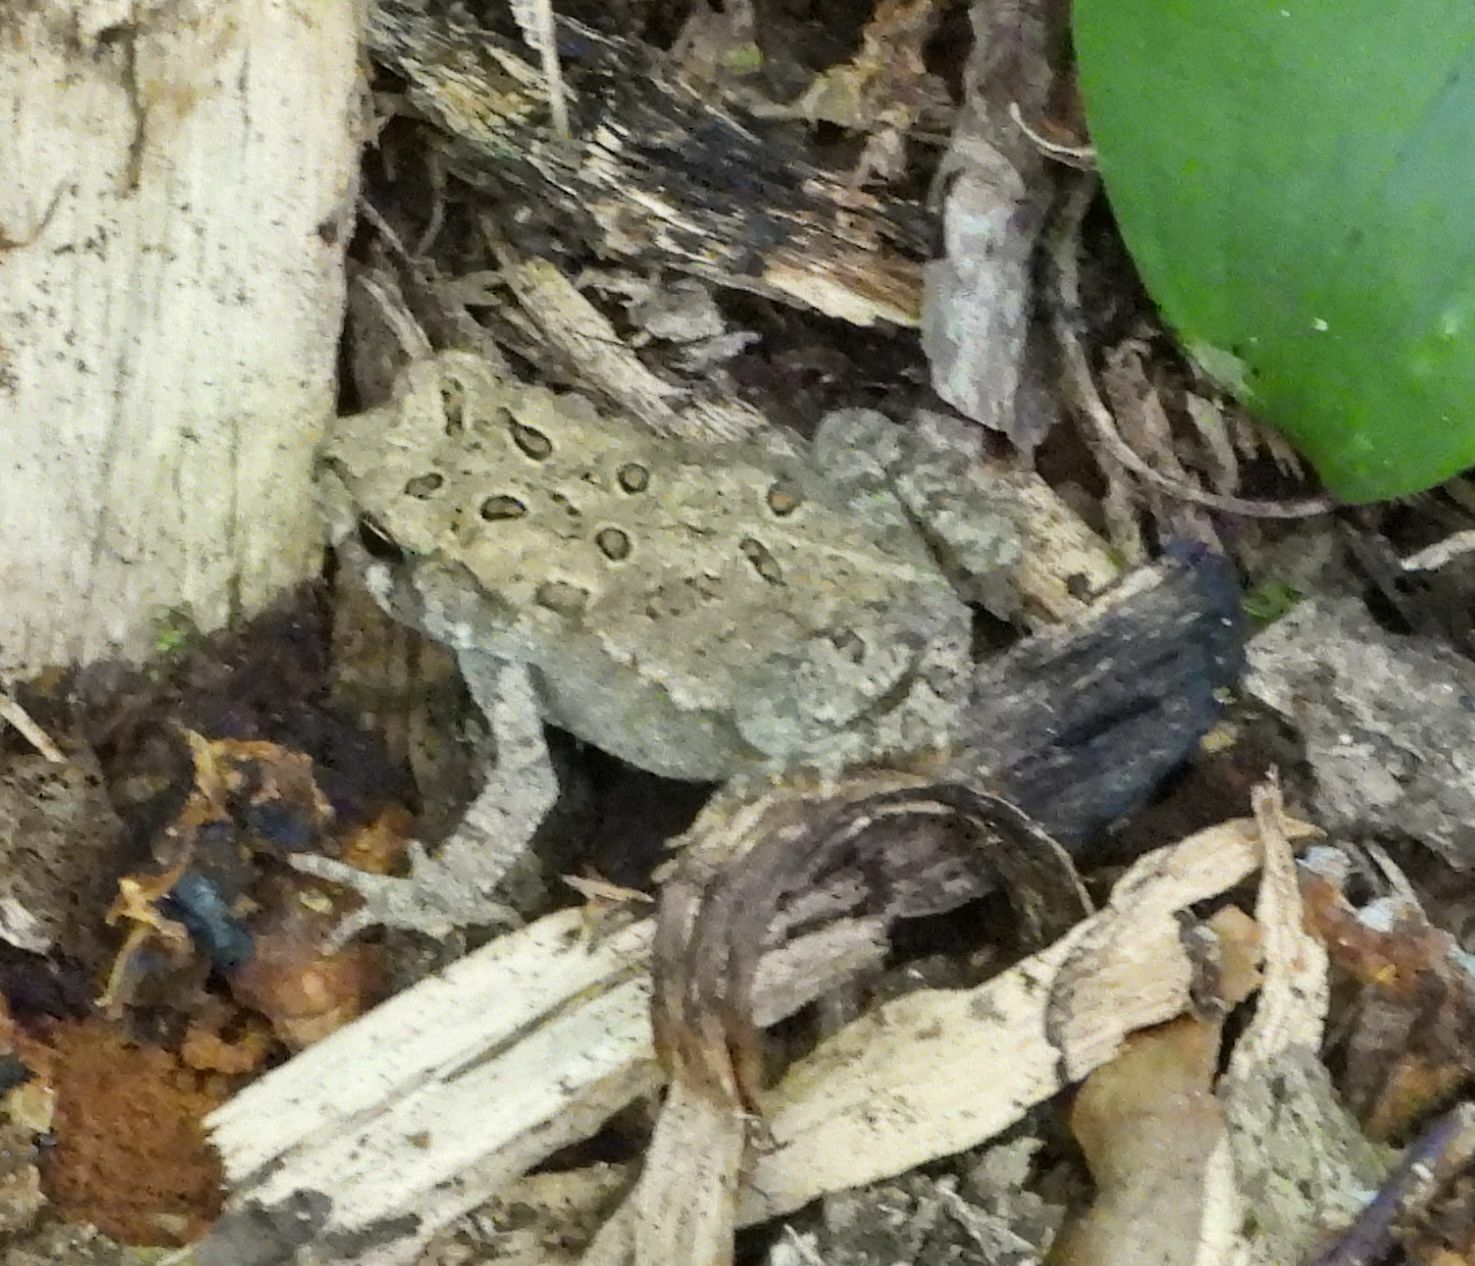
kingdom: Animalia
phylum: Chordata
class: Amphibia
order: Anura
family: Bufonidae
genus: Anaxyrus
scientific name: Anaxyrus americanus
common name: American toad
